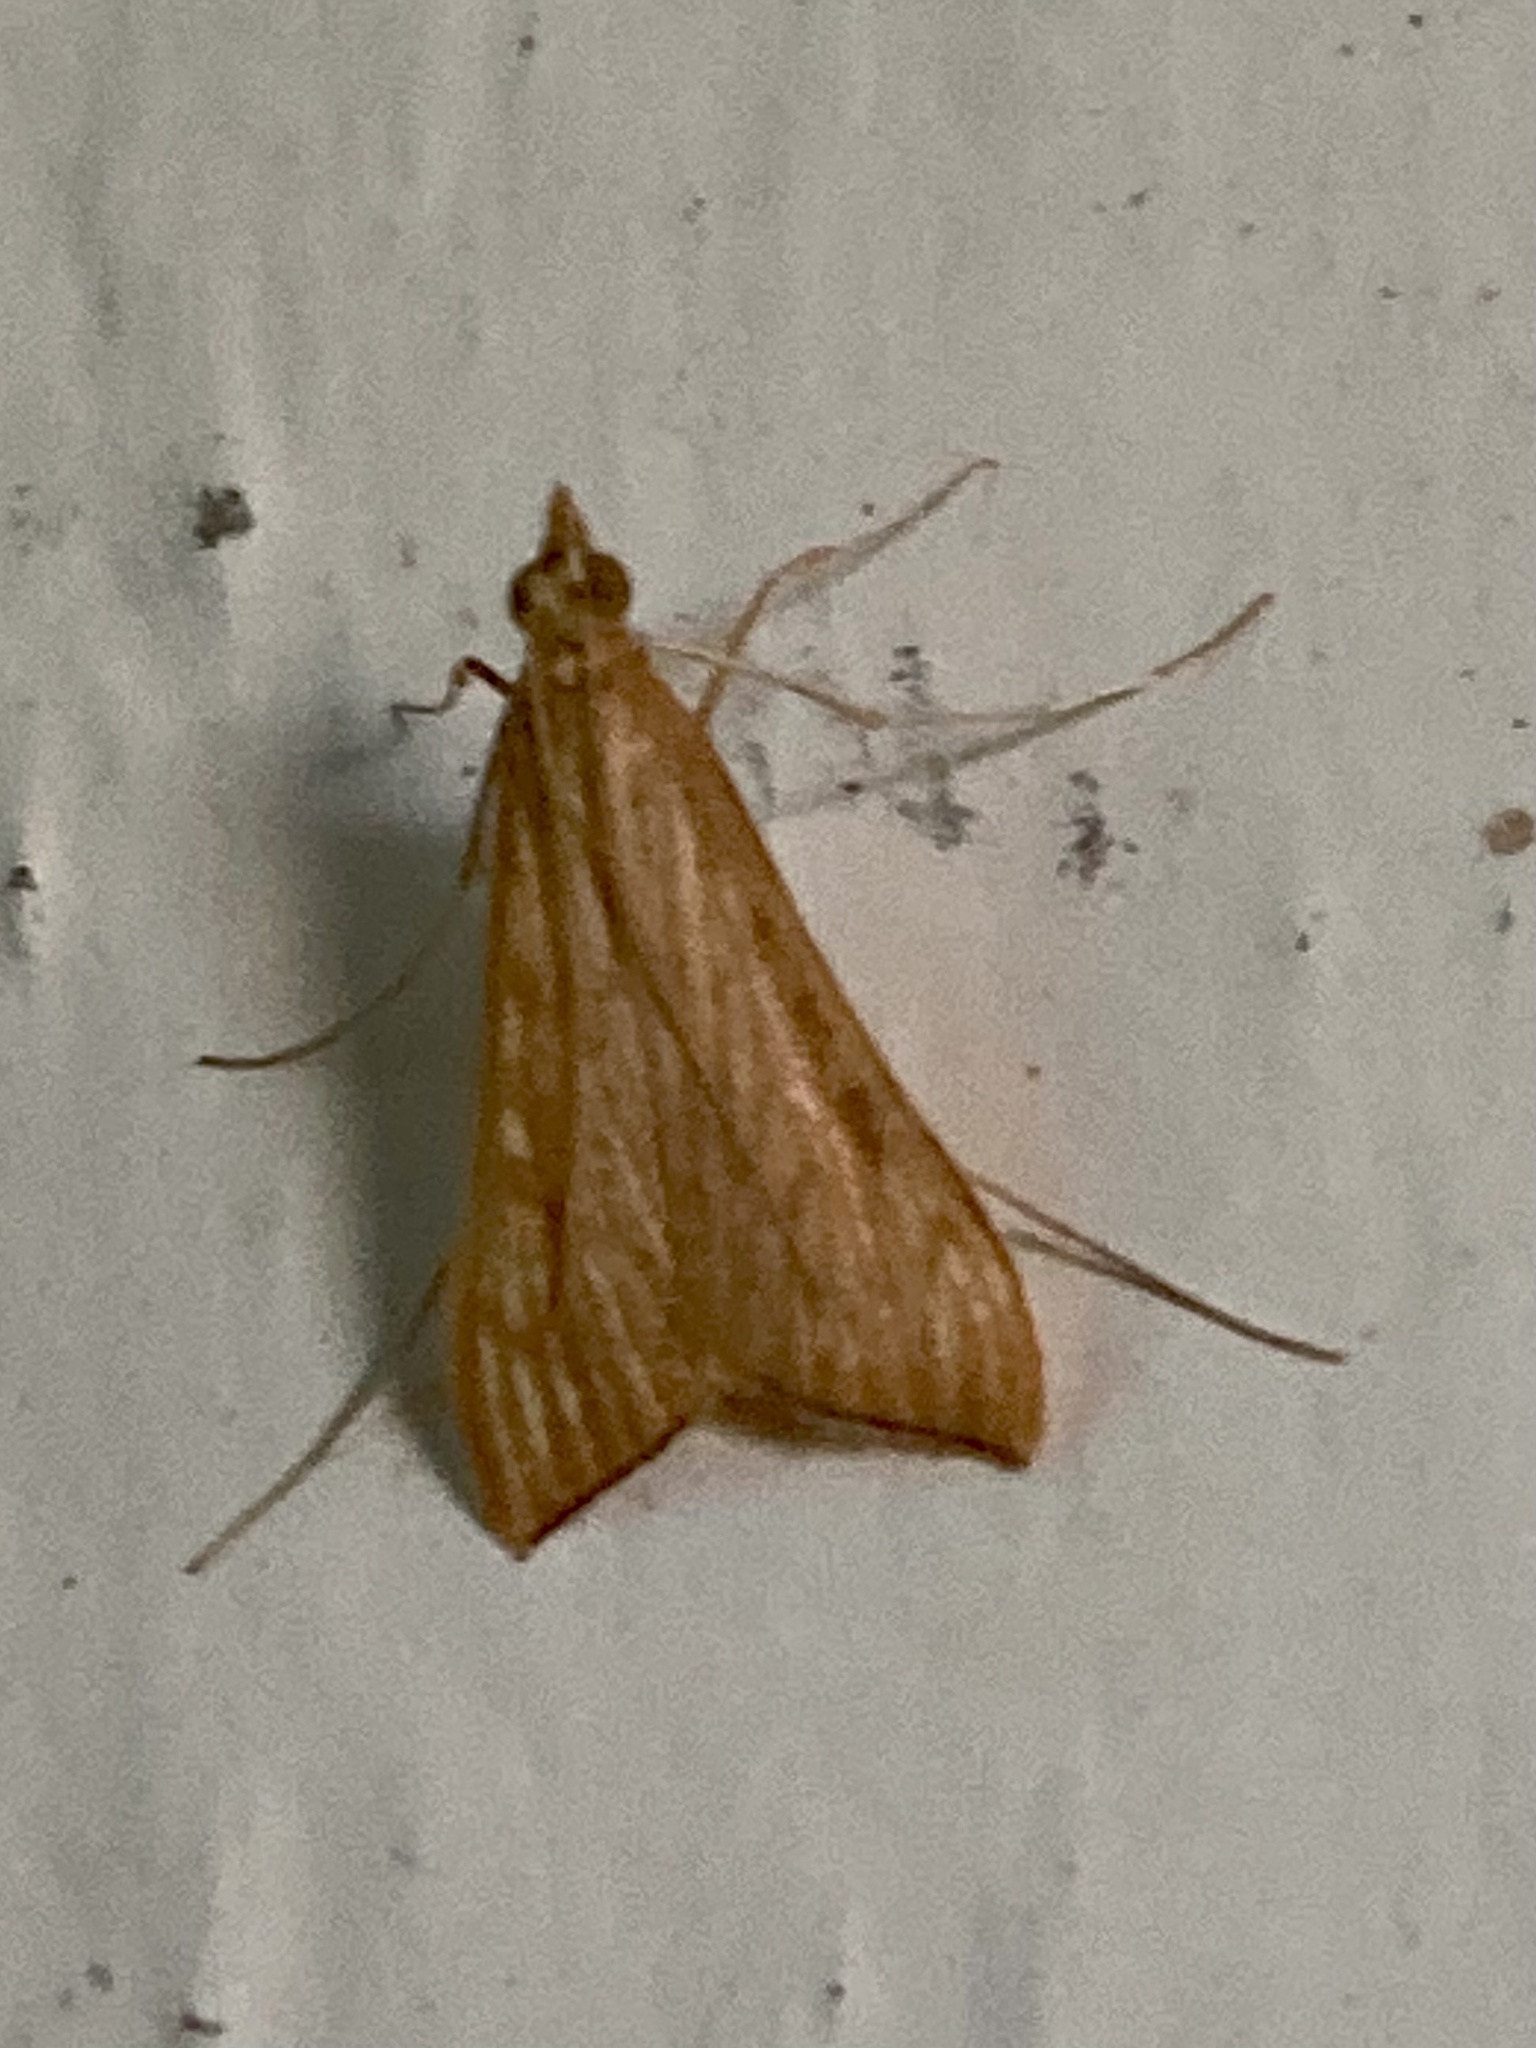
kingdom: Animalia
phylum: Arthropoda
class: Insecta
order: Lepidoptera
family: Crambidae
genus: Antigastra
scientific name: Antigastra catalaunalis
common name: Spanish dot
